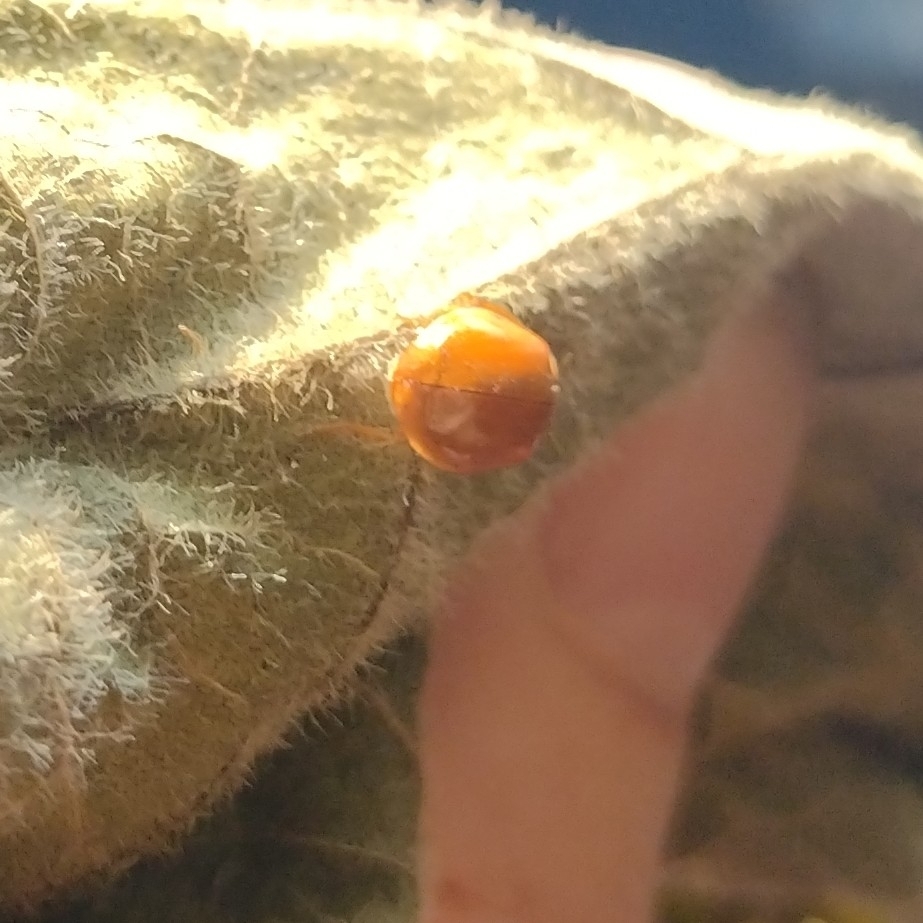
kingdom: Animalia
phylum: Arthropoda
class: Insecta
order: Coleoptera
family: Coccinellidae
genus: Harmonia
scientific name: Harmonia axyridis
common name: Harlequin ladybird
